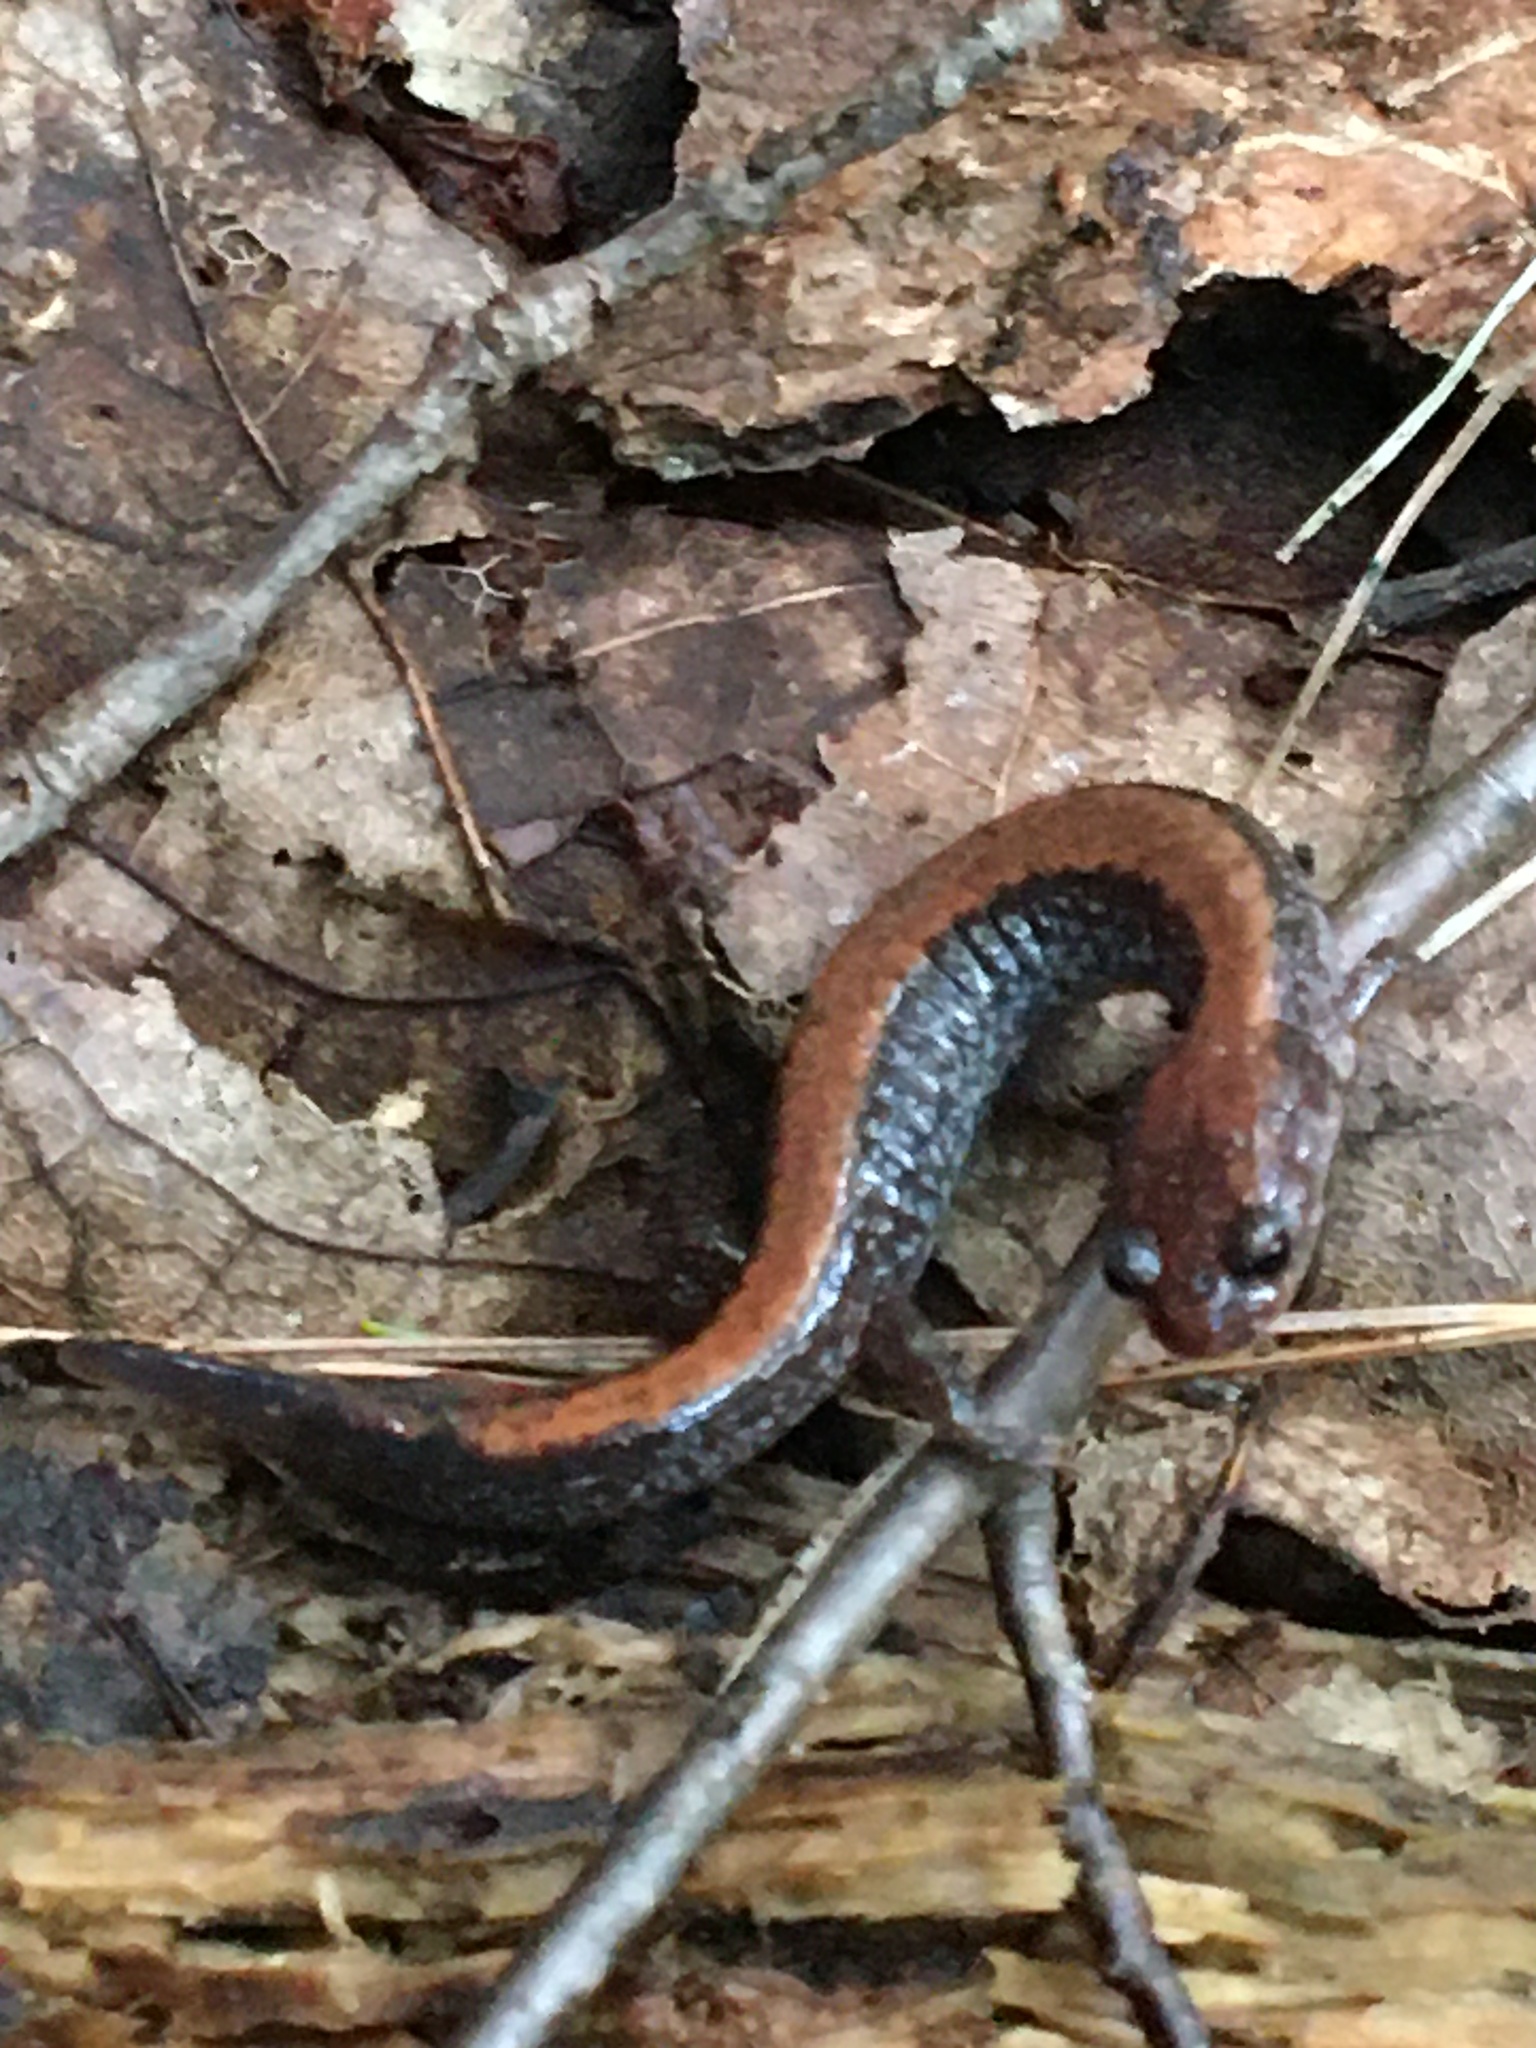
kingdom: Animalia
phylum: Chordata
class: Amphibia
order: Caudata
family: Plethodontidae
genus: Plethodon
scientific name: Plethodon cinereus
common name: Redback salamander
